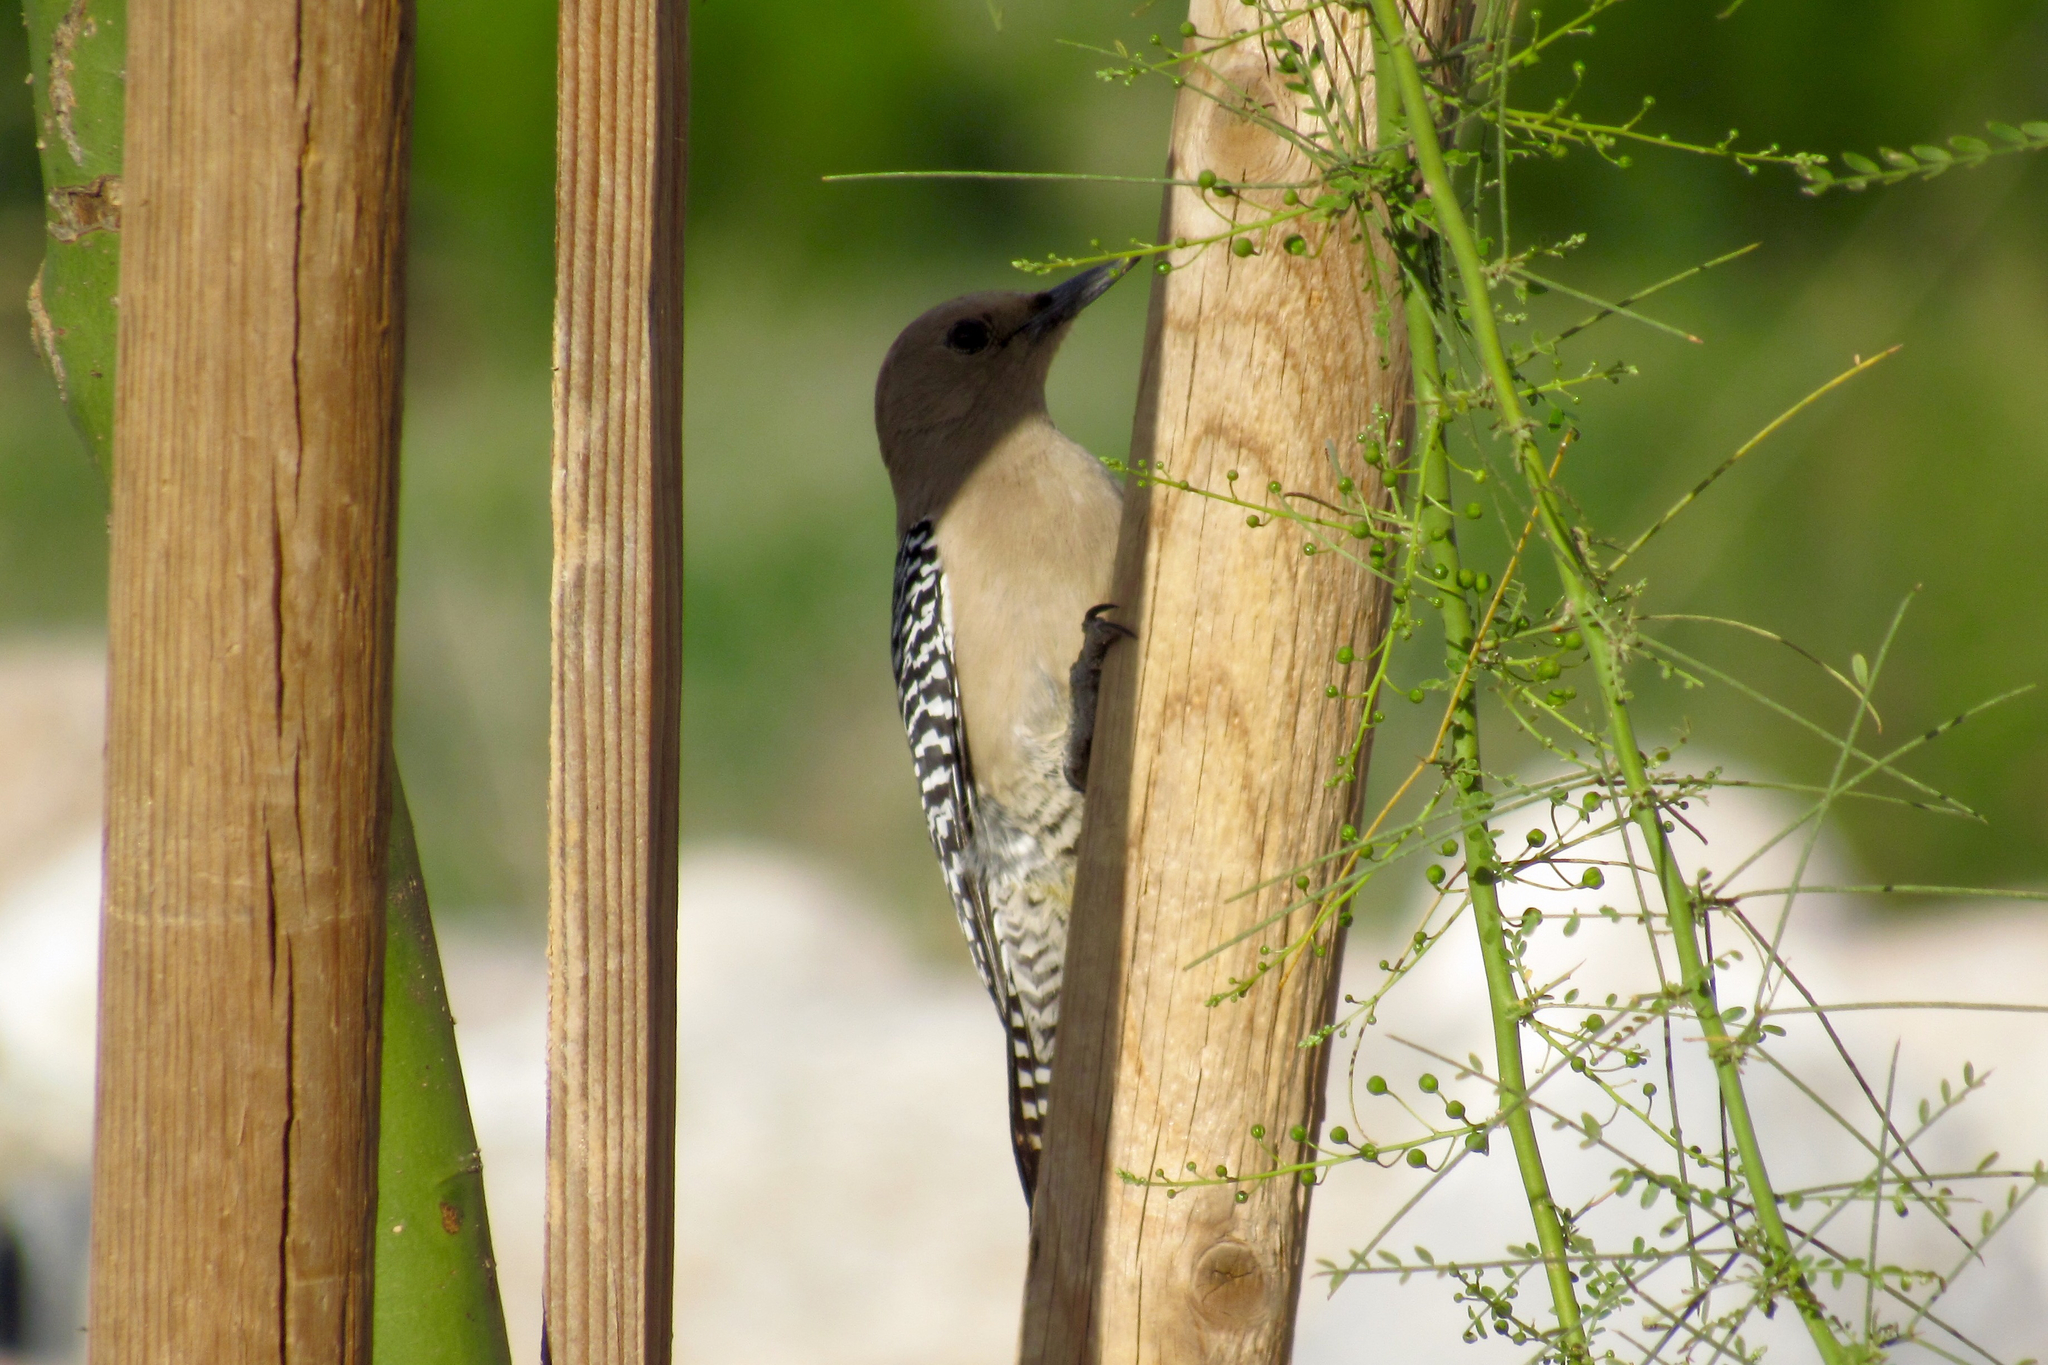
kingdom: Animalia
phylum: Chordata
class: Aves
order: Piciformes
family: Picidae
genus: Melanerpes
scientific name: Melanerpes uropygialis
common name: Gila woodpecker
